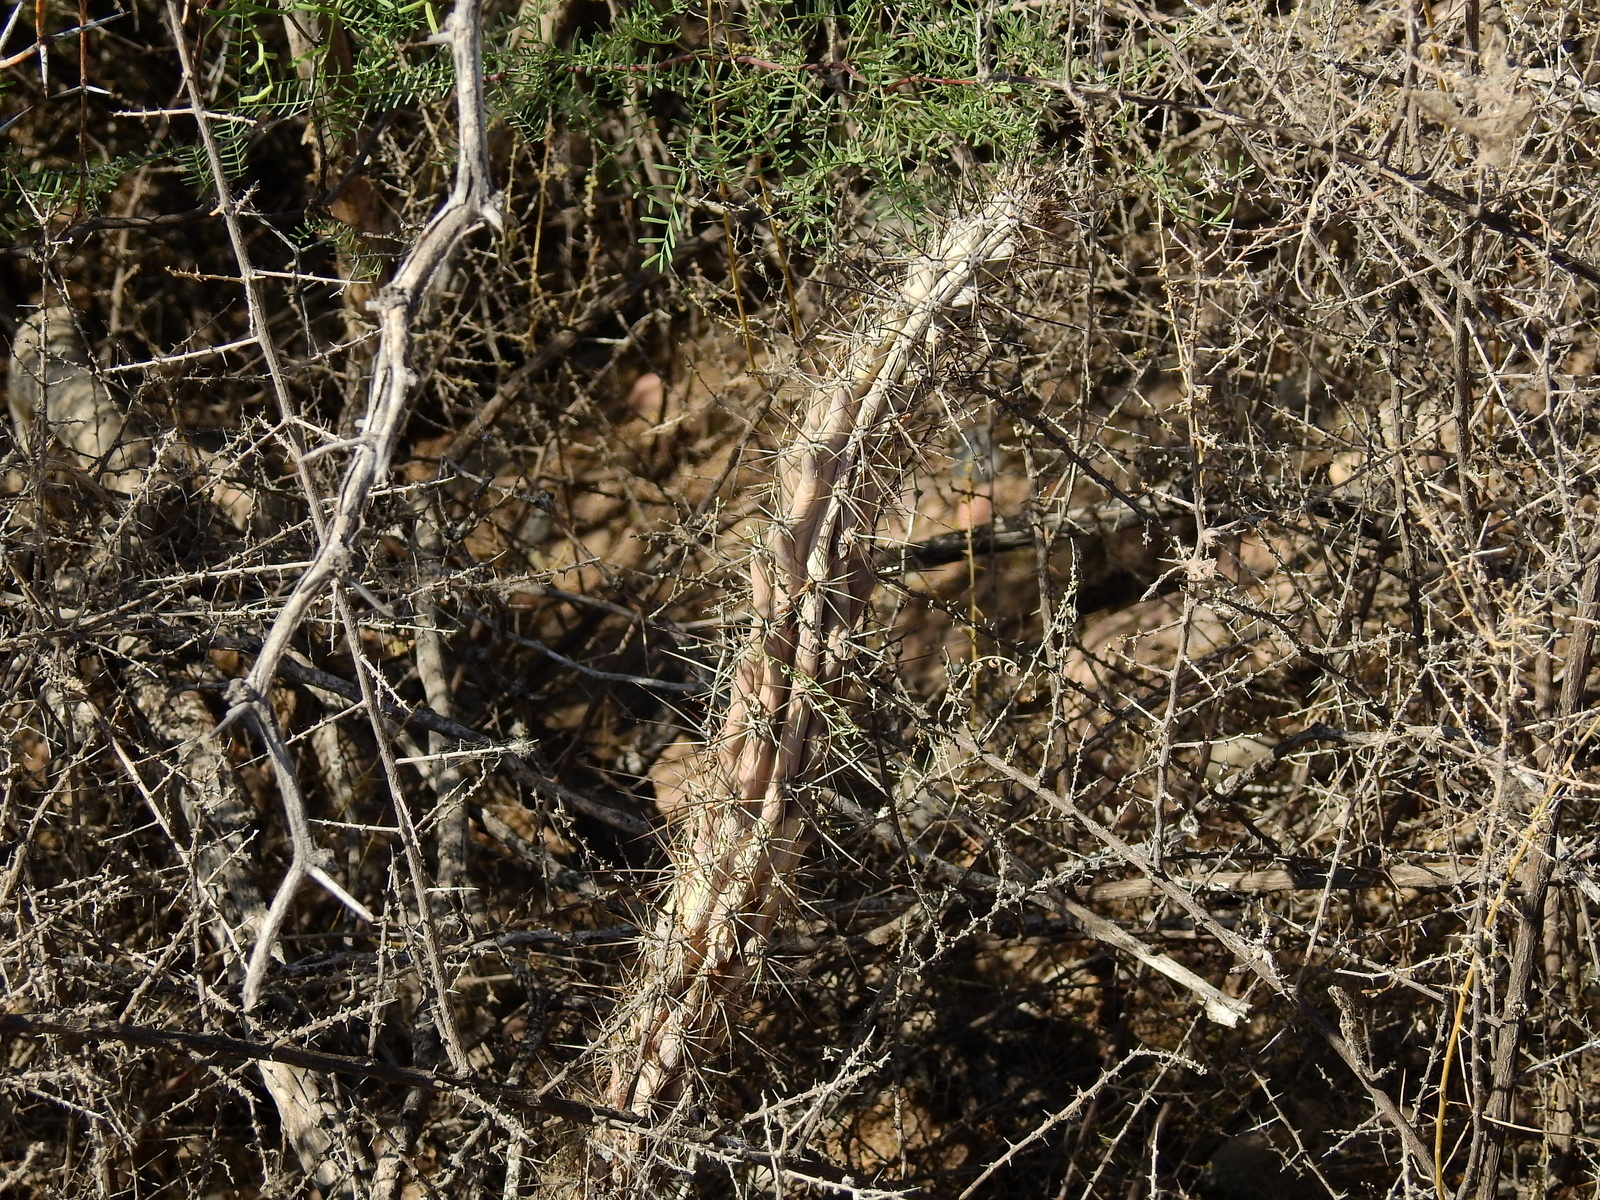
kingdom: Plantae
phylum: Tracheophyta
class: Magnoliopsida
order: Caryophyllales
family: Cactaceae
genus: Cereus
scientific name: Cereus aethiops
